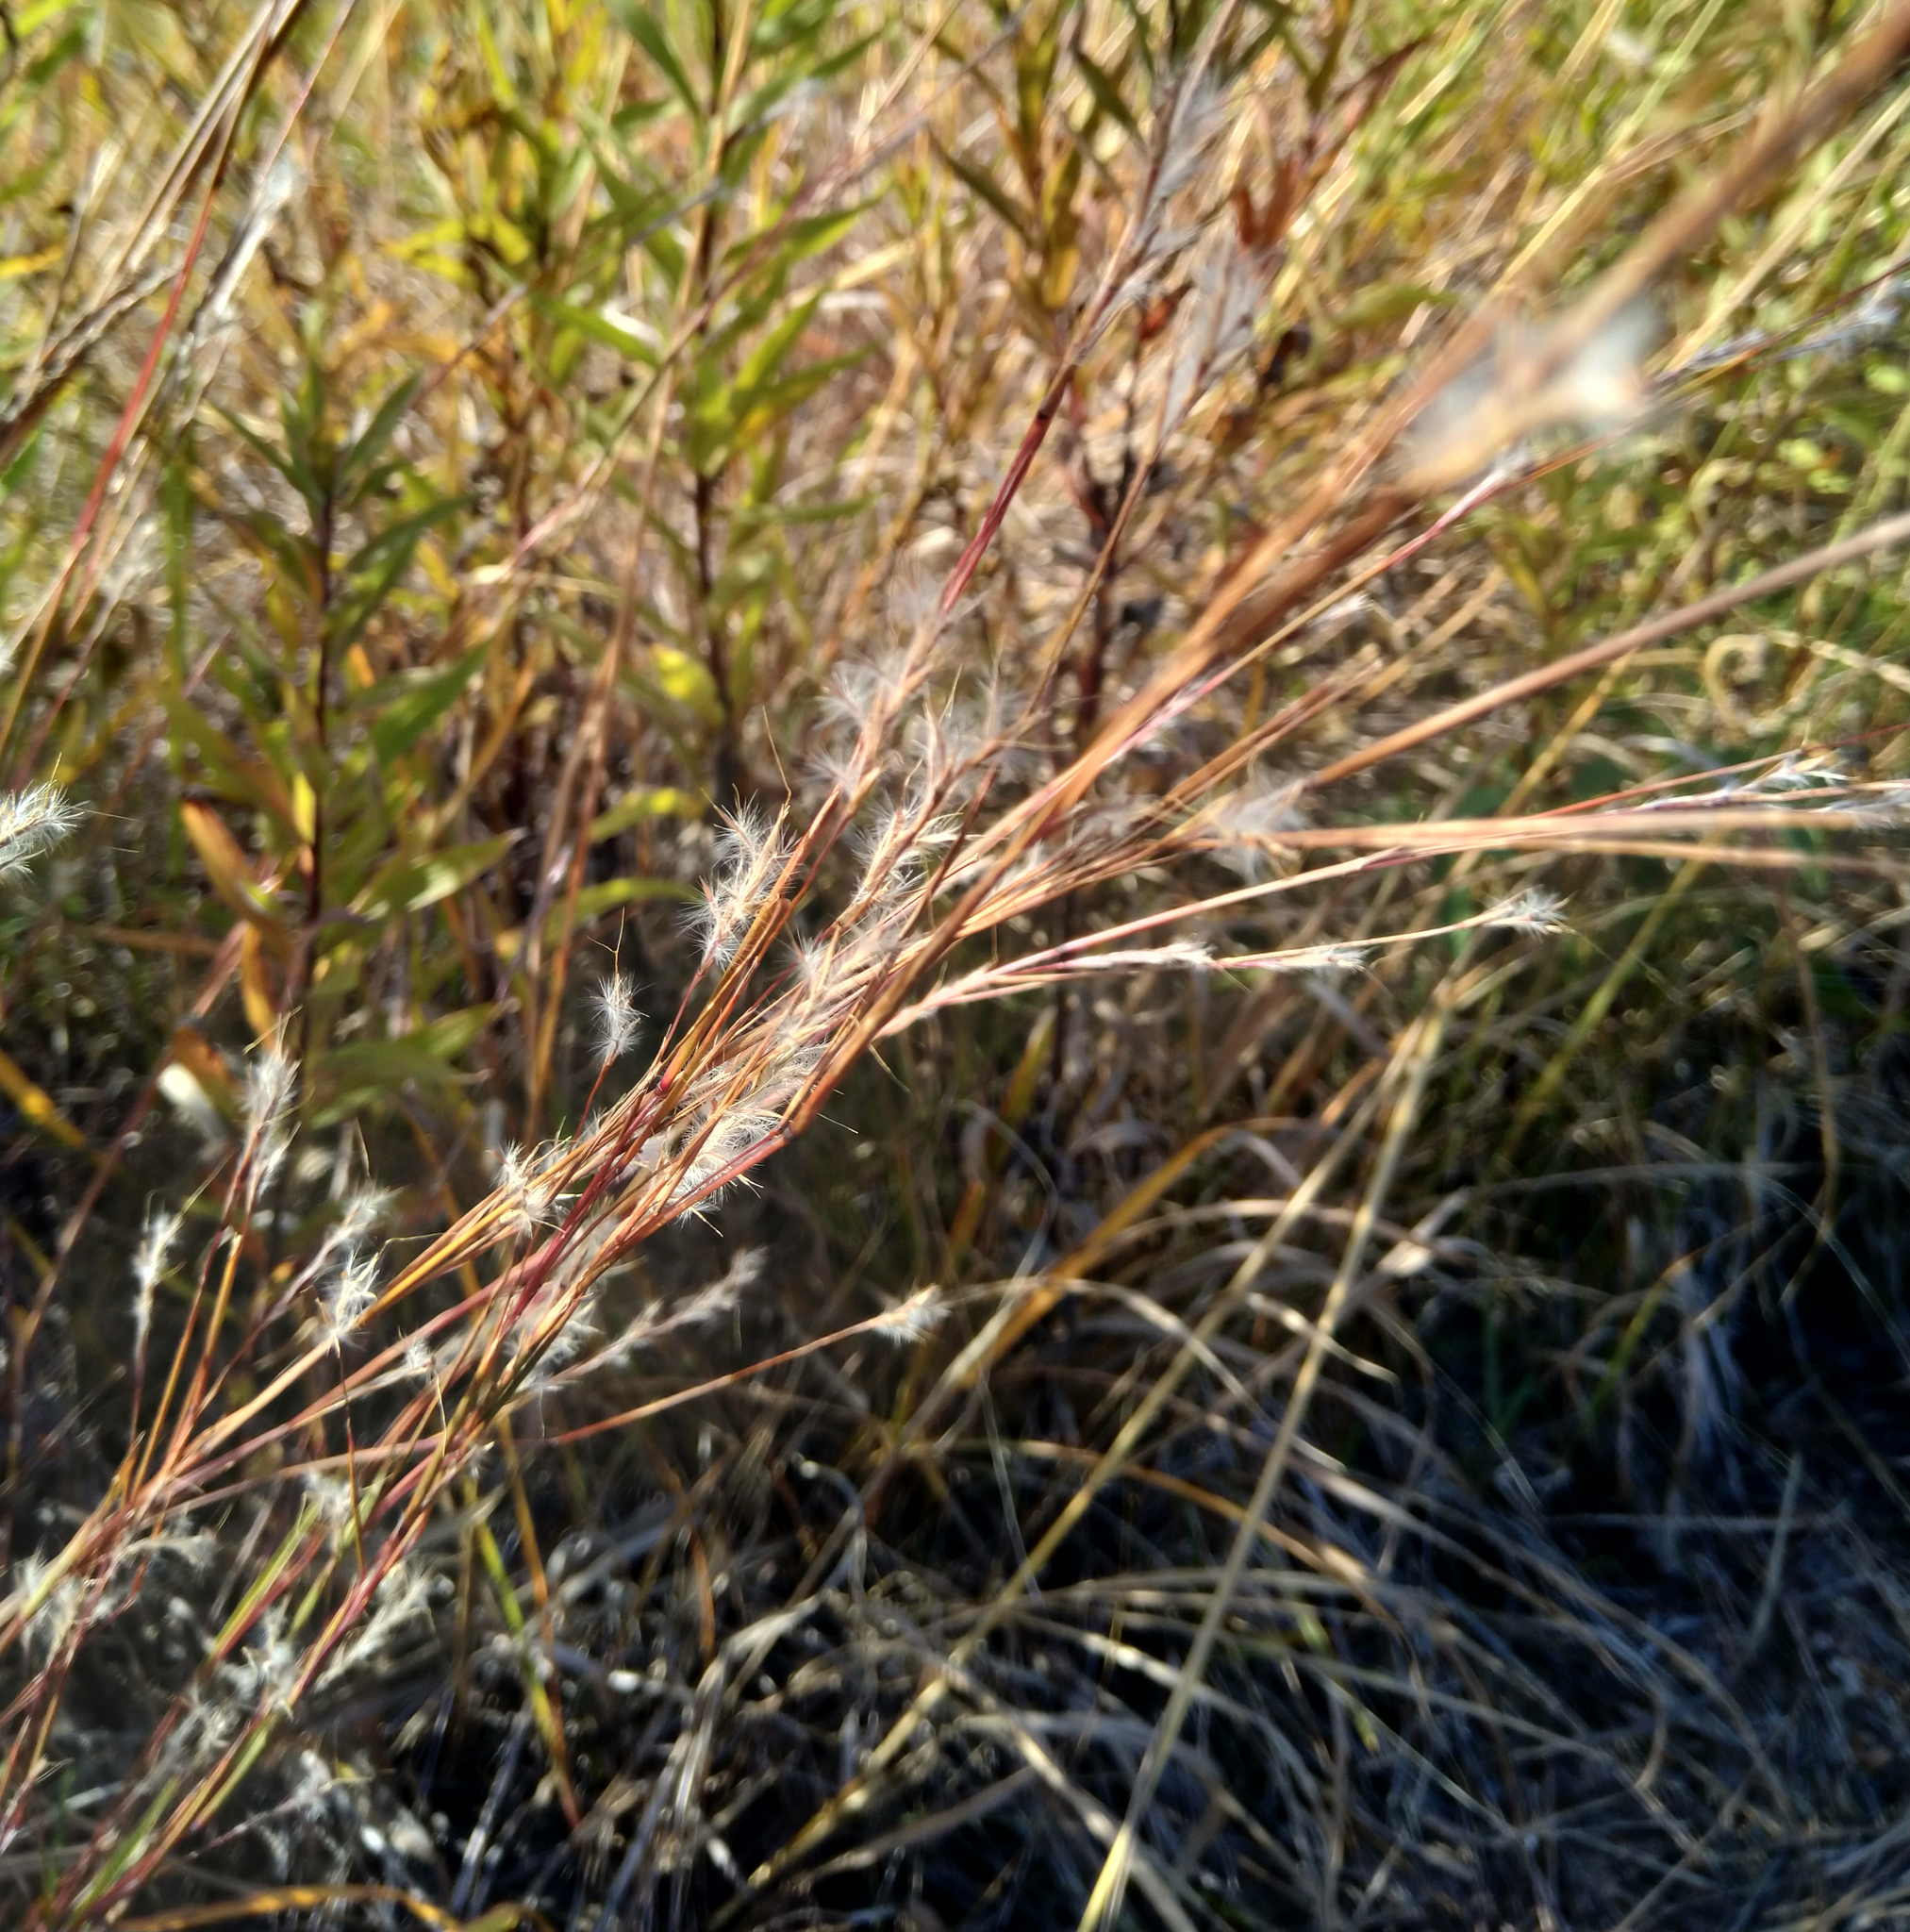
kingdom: Plantae
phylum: Tracheophyta
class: Liliopsida
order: Poales
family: Poaceae
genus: Schizachyrium
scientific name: Schizachyrium scoparium
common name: Little bluestem
